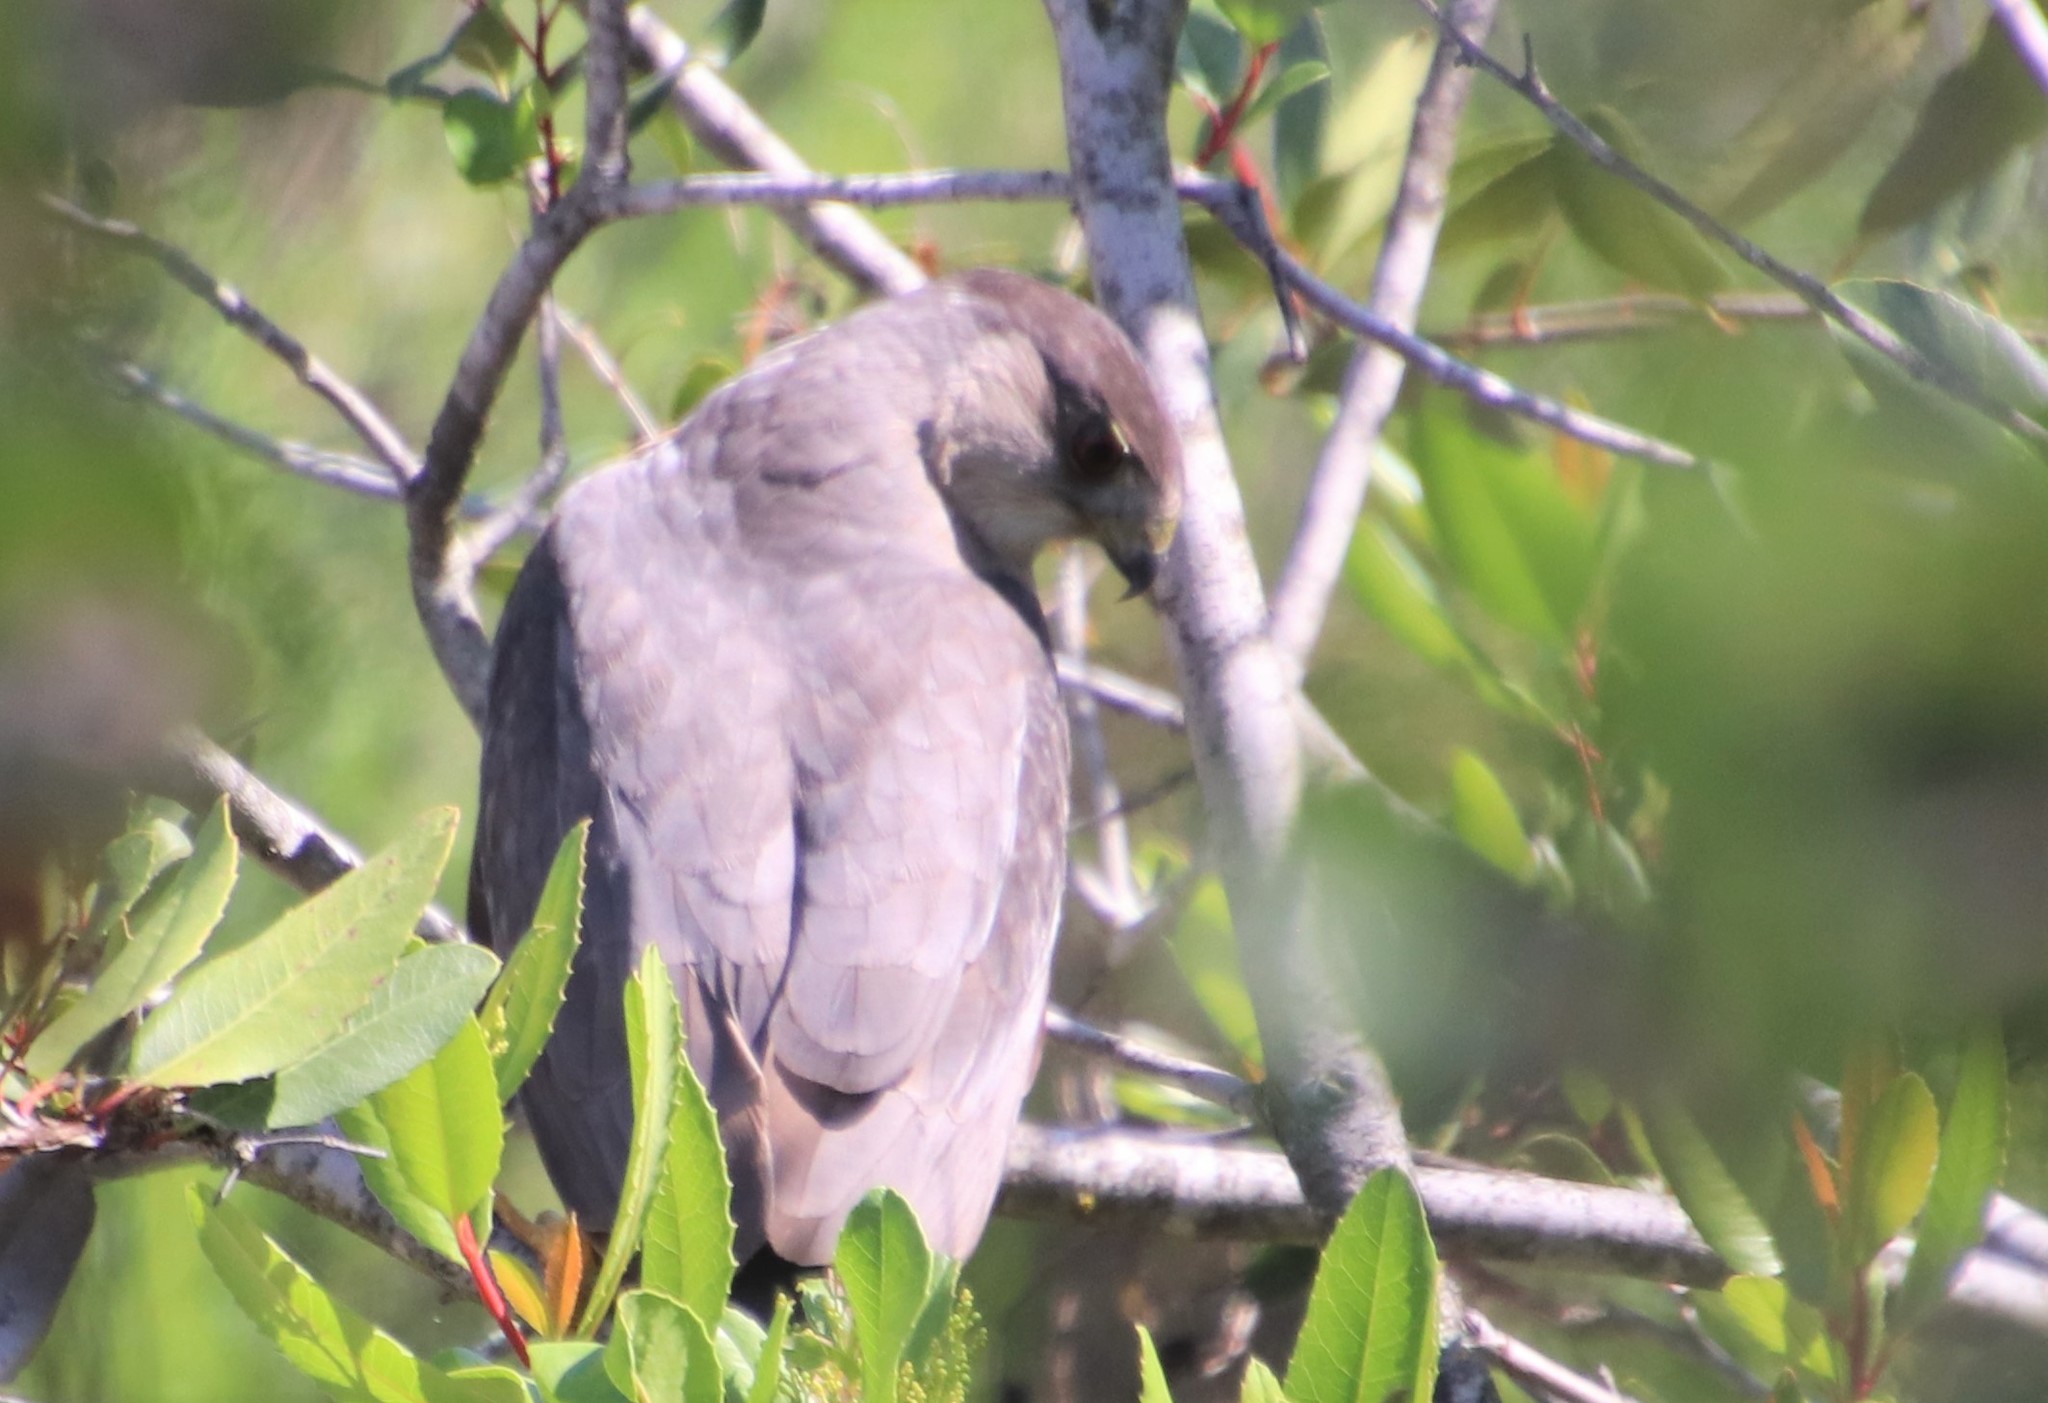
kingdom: Animalia
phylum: Chordata
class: Aves
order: Accipitriformes
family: Accipitridae
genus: Accipiter
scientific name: Accipiter cooperii
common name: Cooper's hawk
